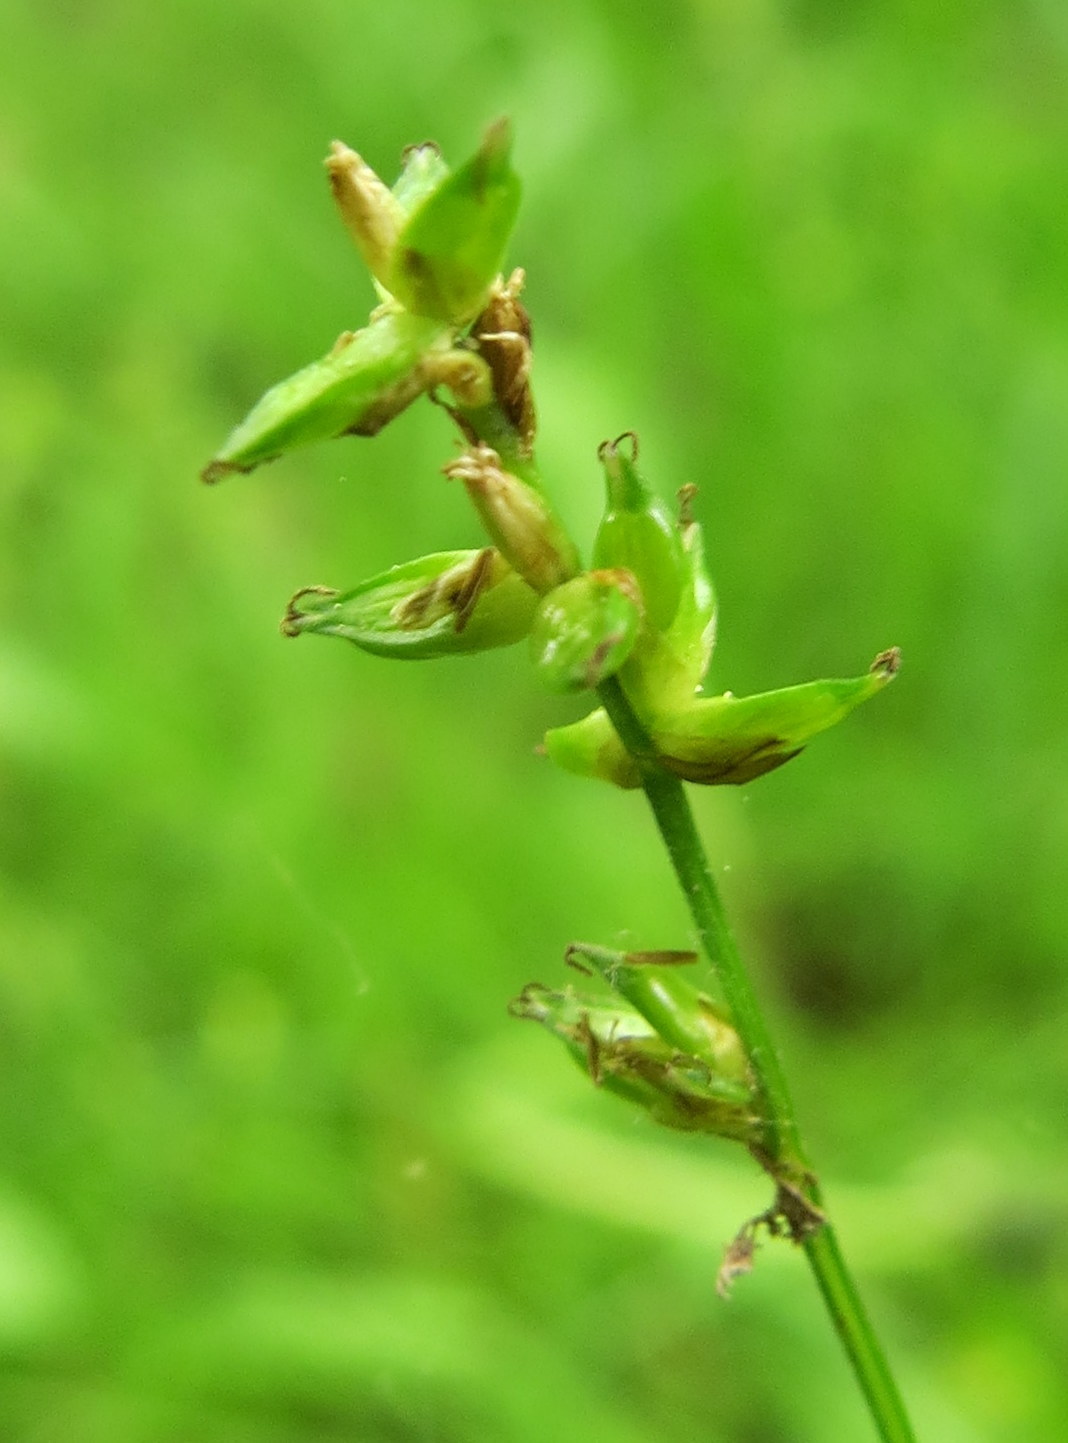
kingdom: Plantae
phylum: Tracheophyta
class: Liliopsida
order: Poales
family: Cyperaceae
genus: Carex
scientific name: Carex rosea
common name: Curly-styled wood sedge
